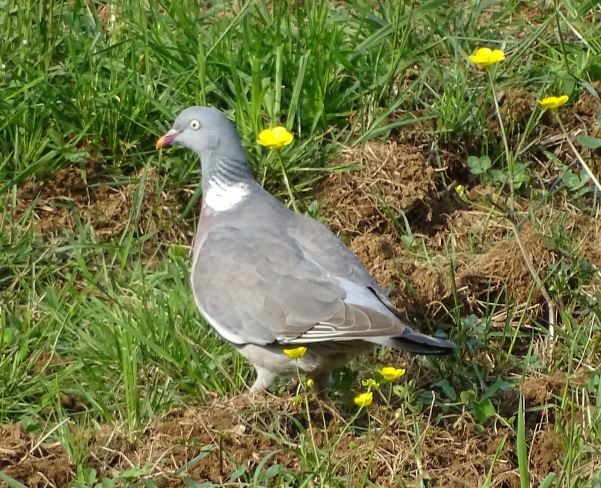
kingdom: Animalia
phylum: Chordata
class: Aves
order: Columbiformes
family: Columbidae
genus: Columba
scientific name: Columba palumbus
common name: Common wood pigeon
